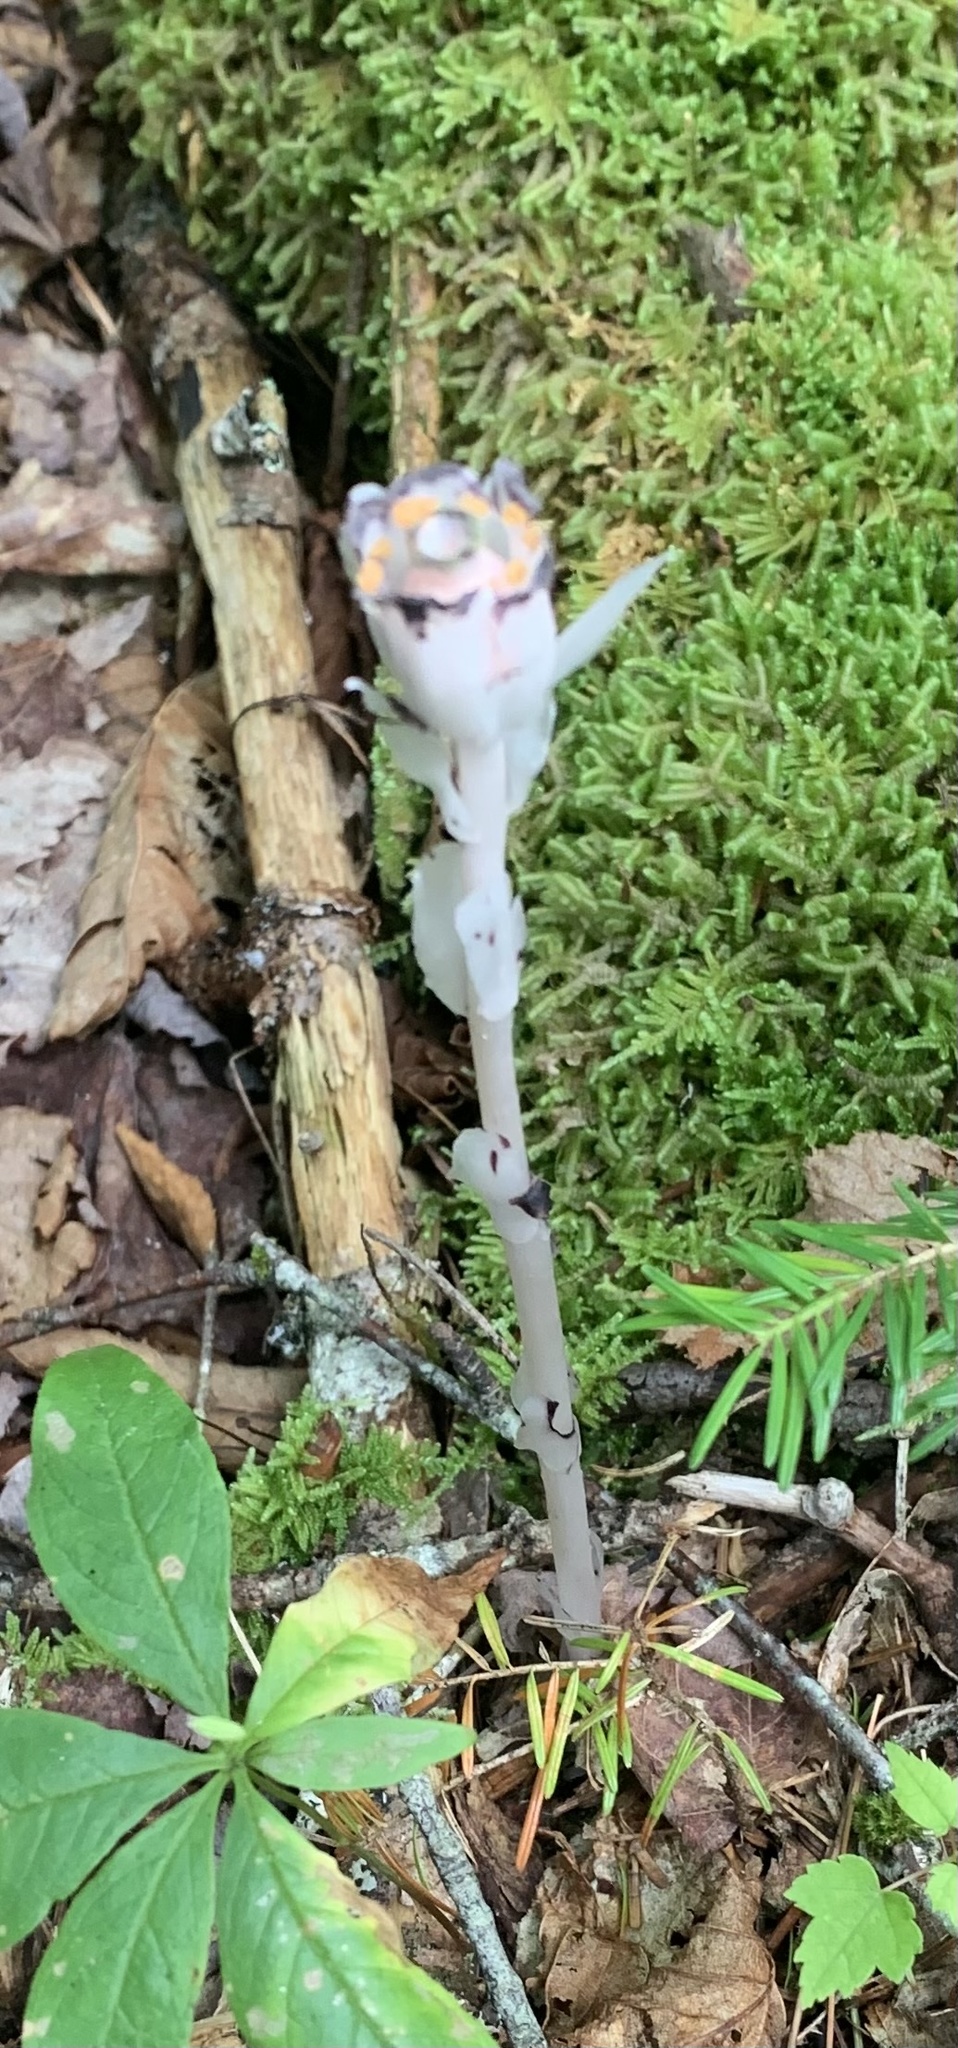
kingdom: Plantae
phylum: Tracheophyta
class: Magnoliopsida
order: Ericales
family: Ericaceae
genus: Monotropa
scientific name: Monotropa uniflora
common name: Convulsion root
